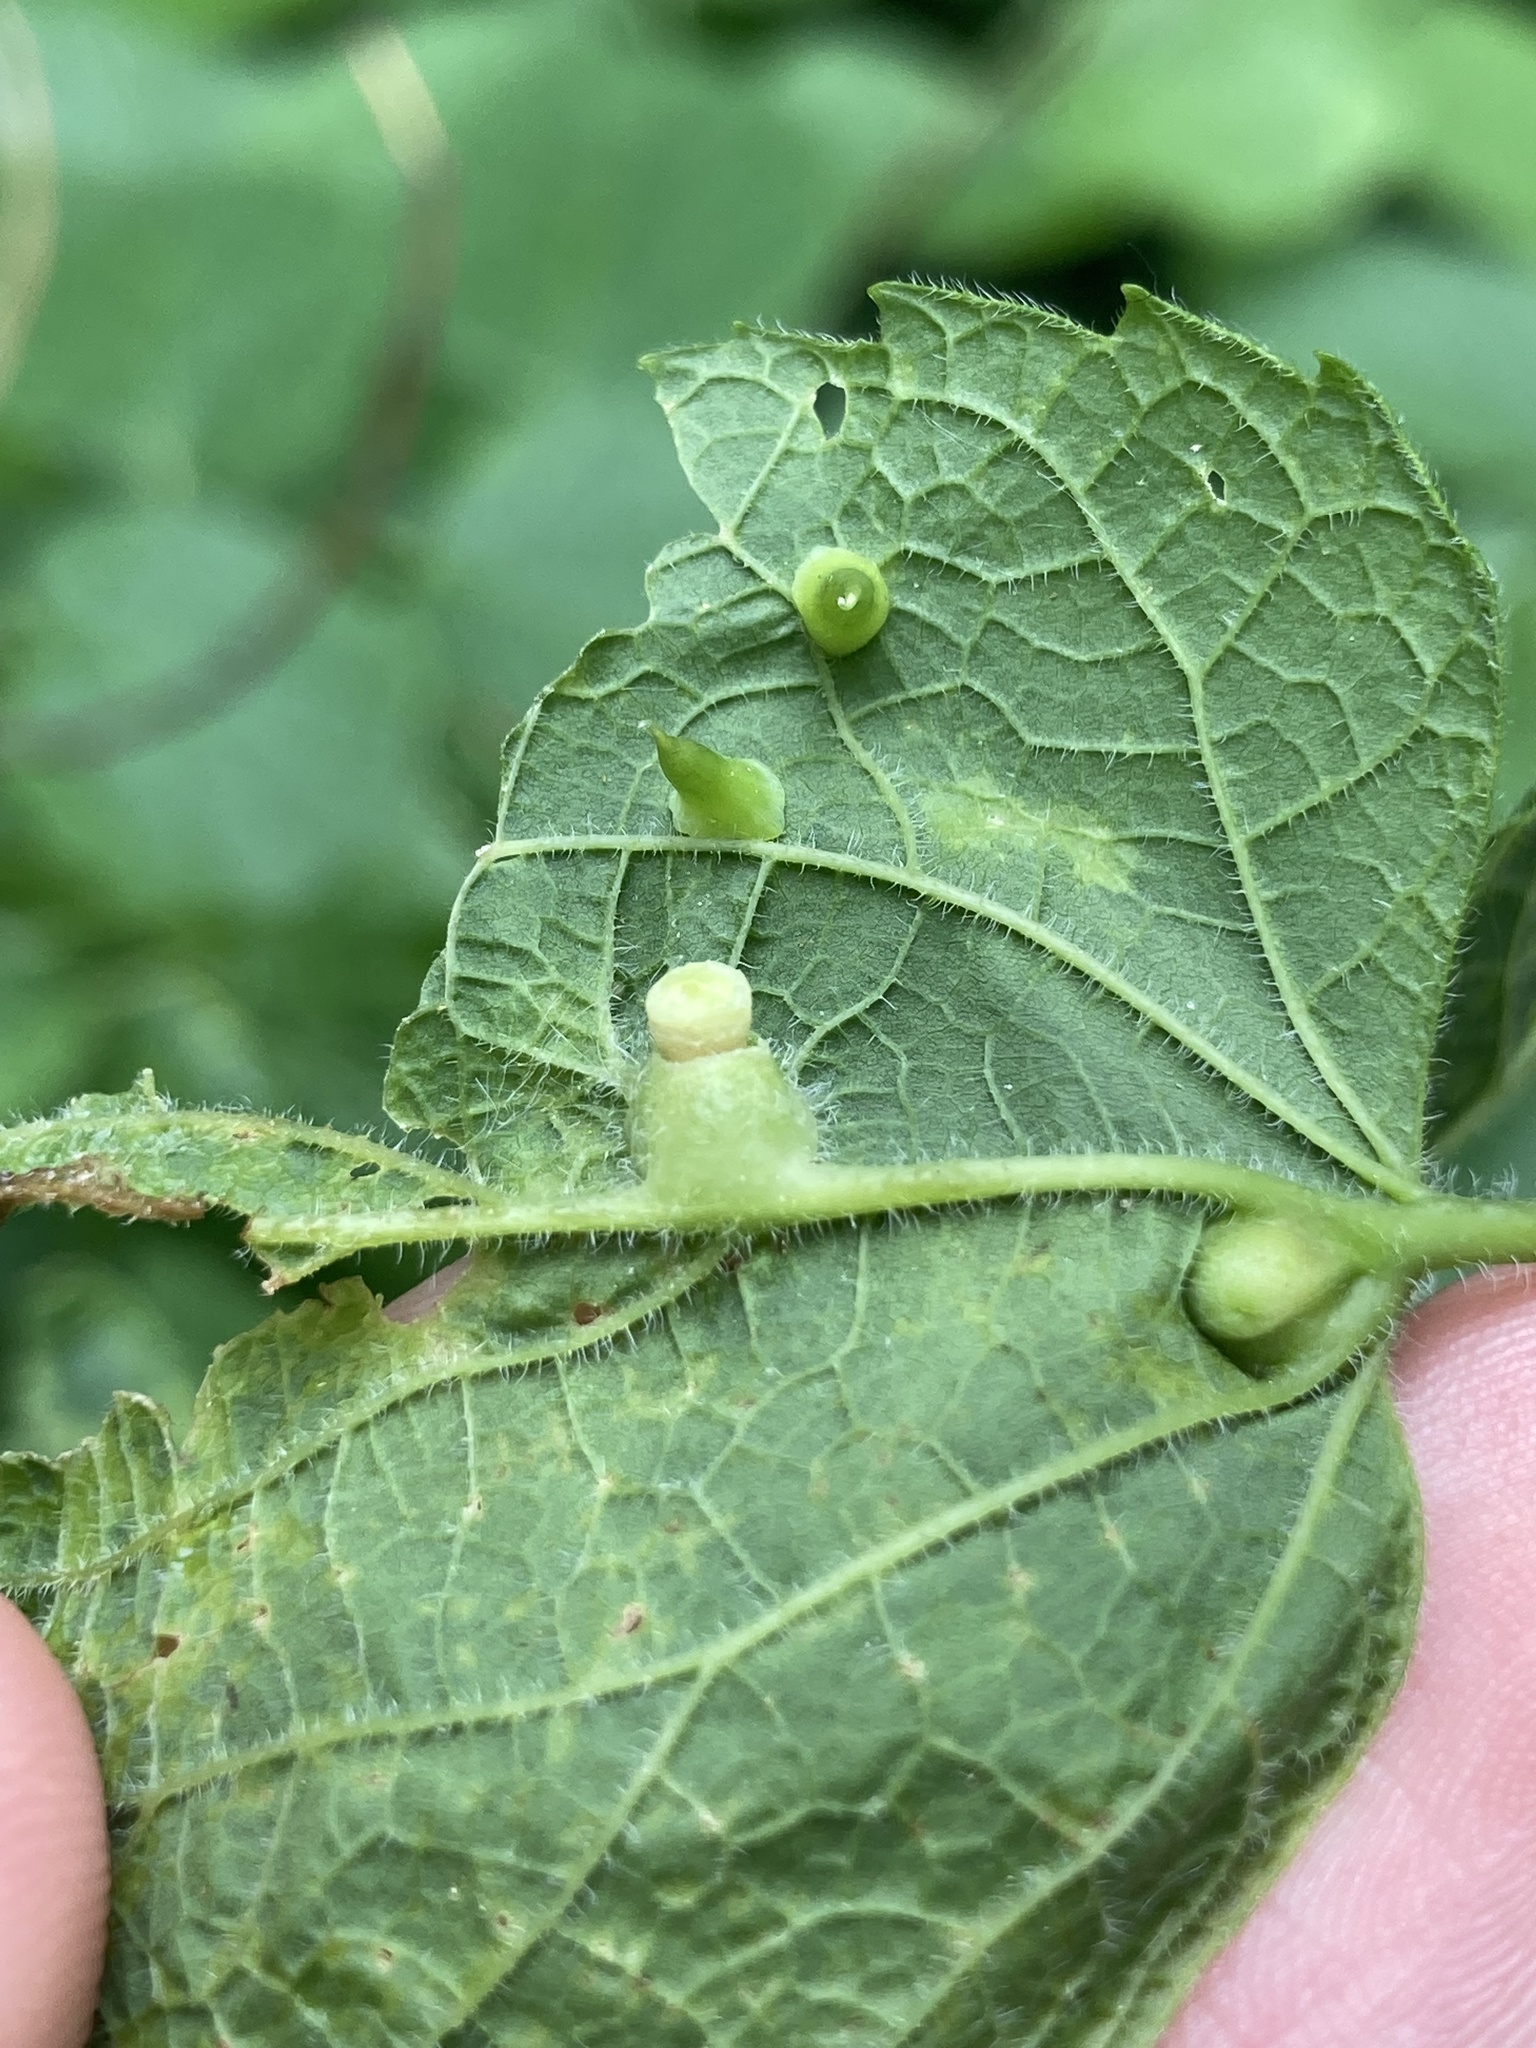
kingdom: Animalia
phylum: Arthropoda
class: Insecta
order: Diptera
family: Cecidomyiidae
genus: Celticecis
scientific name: Celticecis expulsa
